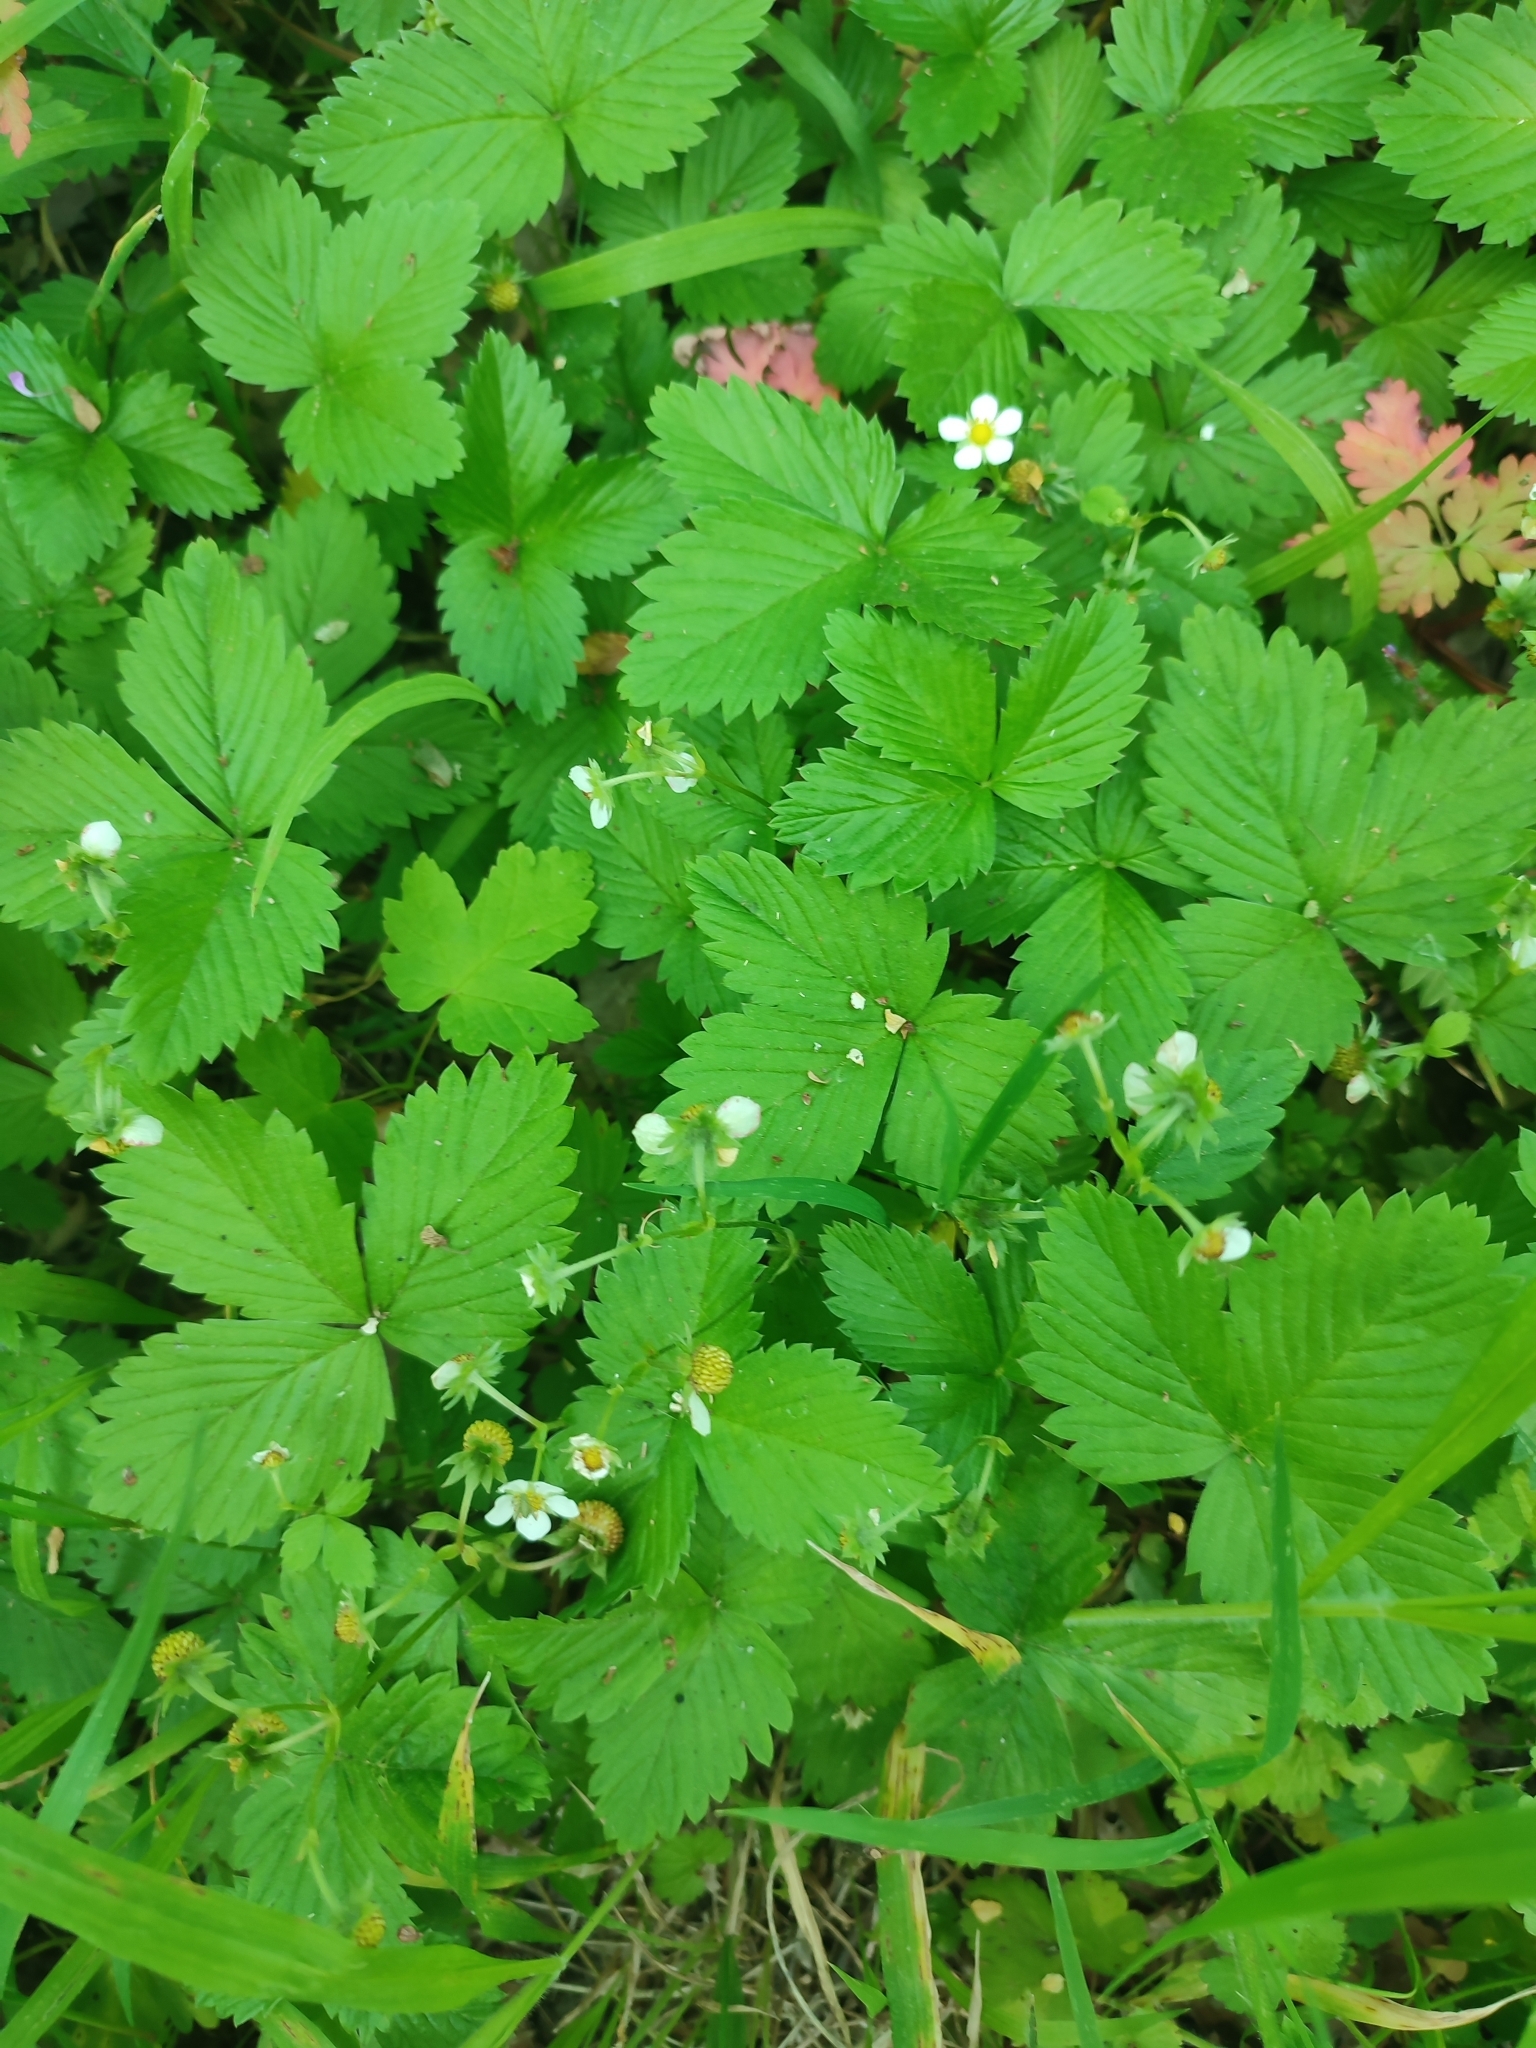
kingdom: Plantae
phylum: Tracheophyta
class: Magnoliopsida
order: Rosales
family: Rosaceae
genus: Fragaria
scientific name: Fragaria vesca
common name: Wild strawberry
